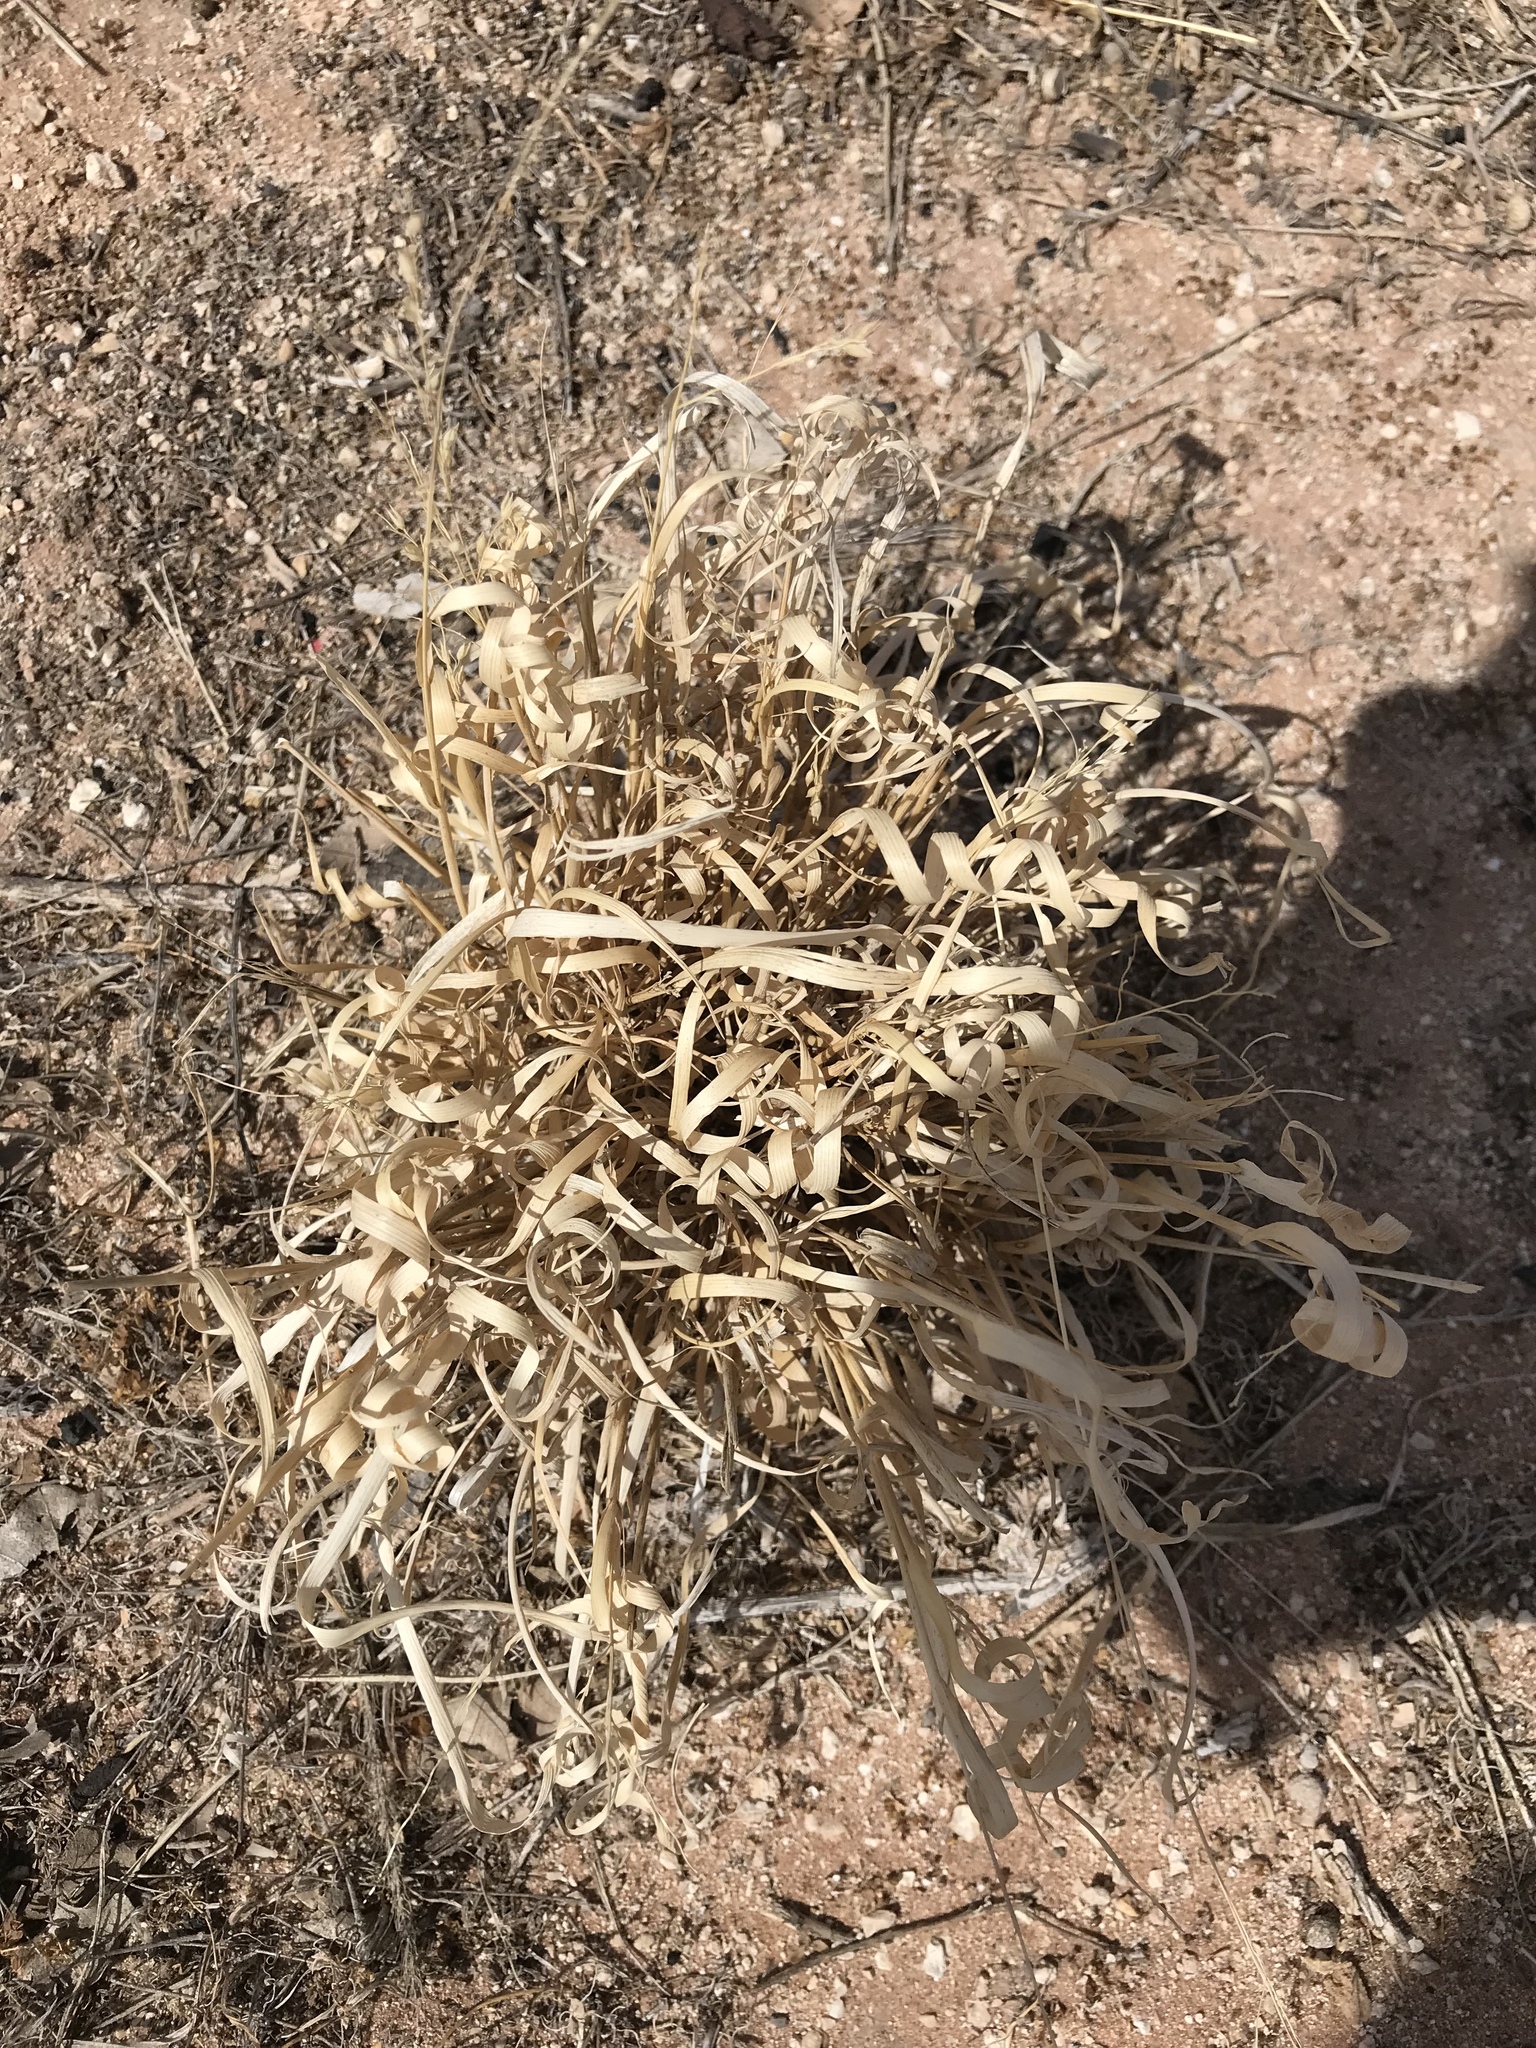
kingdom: Plantae
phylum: Tracheophyta
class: Liliopsida
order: Poales
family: Poaceae
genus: Panicum
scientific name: Panicum hallii
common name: Hall's witchgrass
